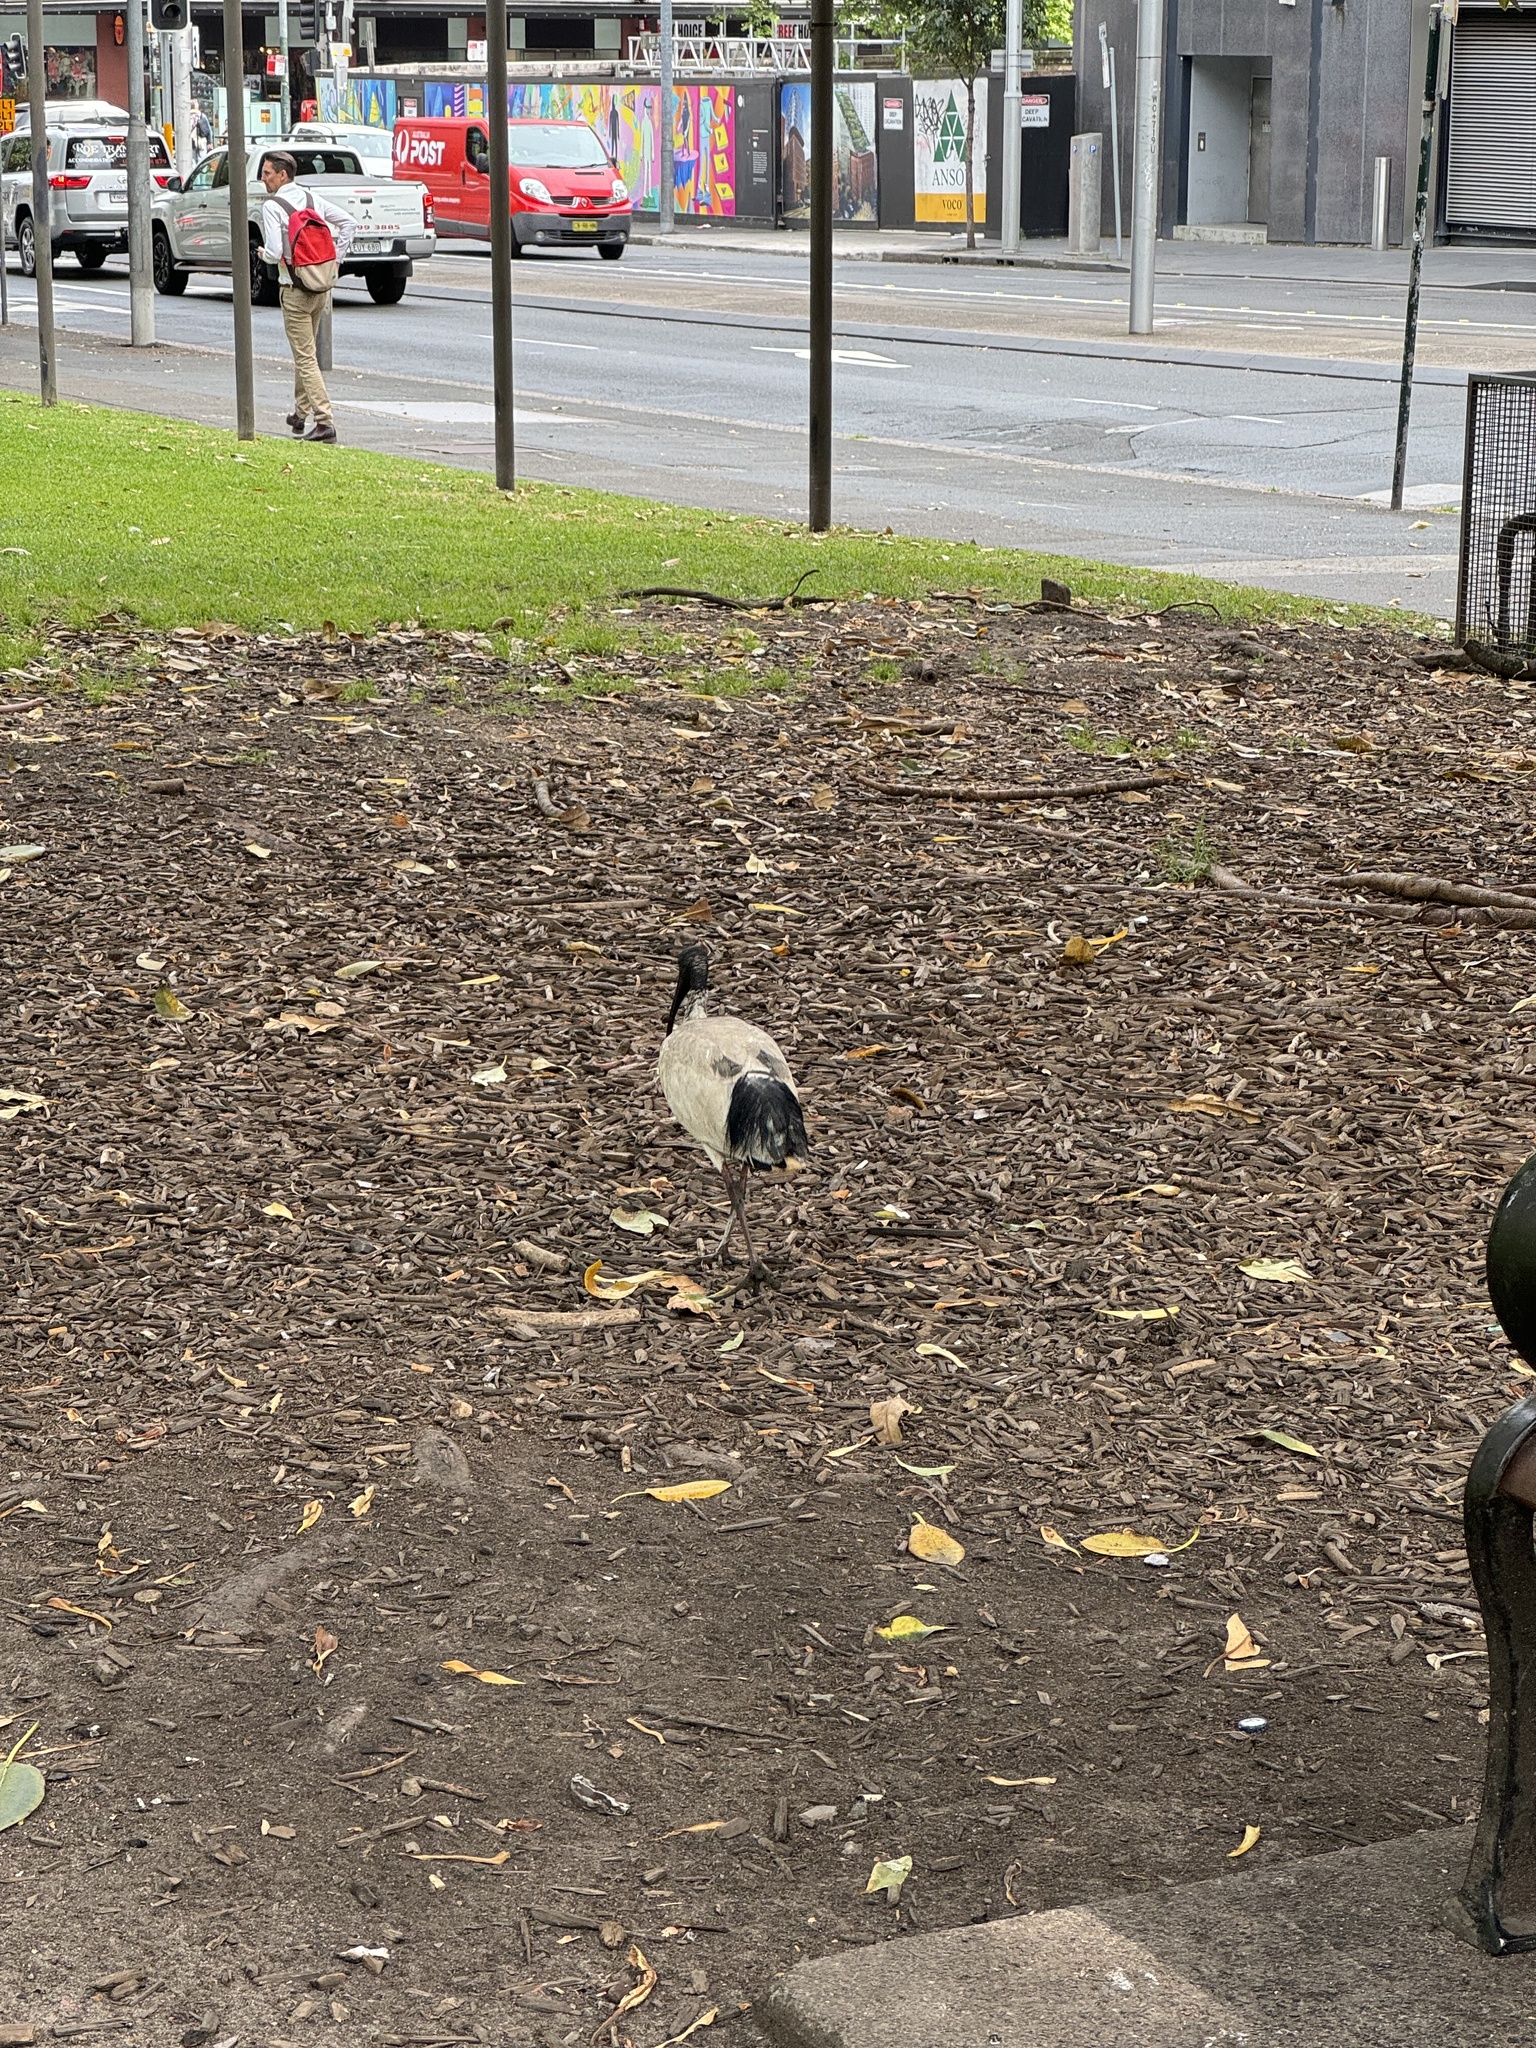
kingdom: Animalia
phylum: Chordata
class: Aves
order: Pelecaniformes
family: Threskiornithidae
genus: Threskiornis
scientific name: Threskiornis molucca
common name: Australian white ibis
